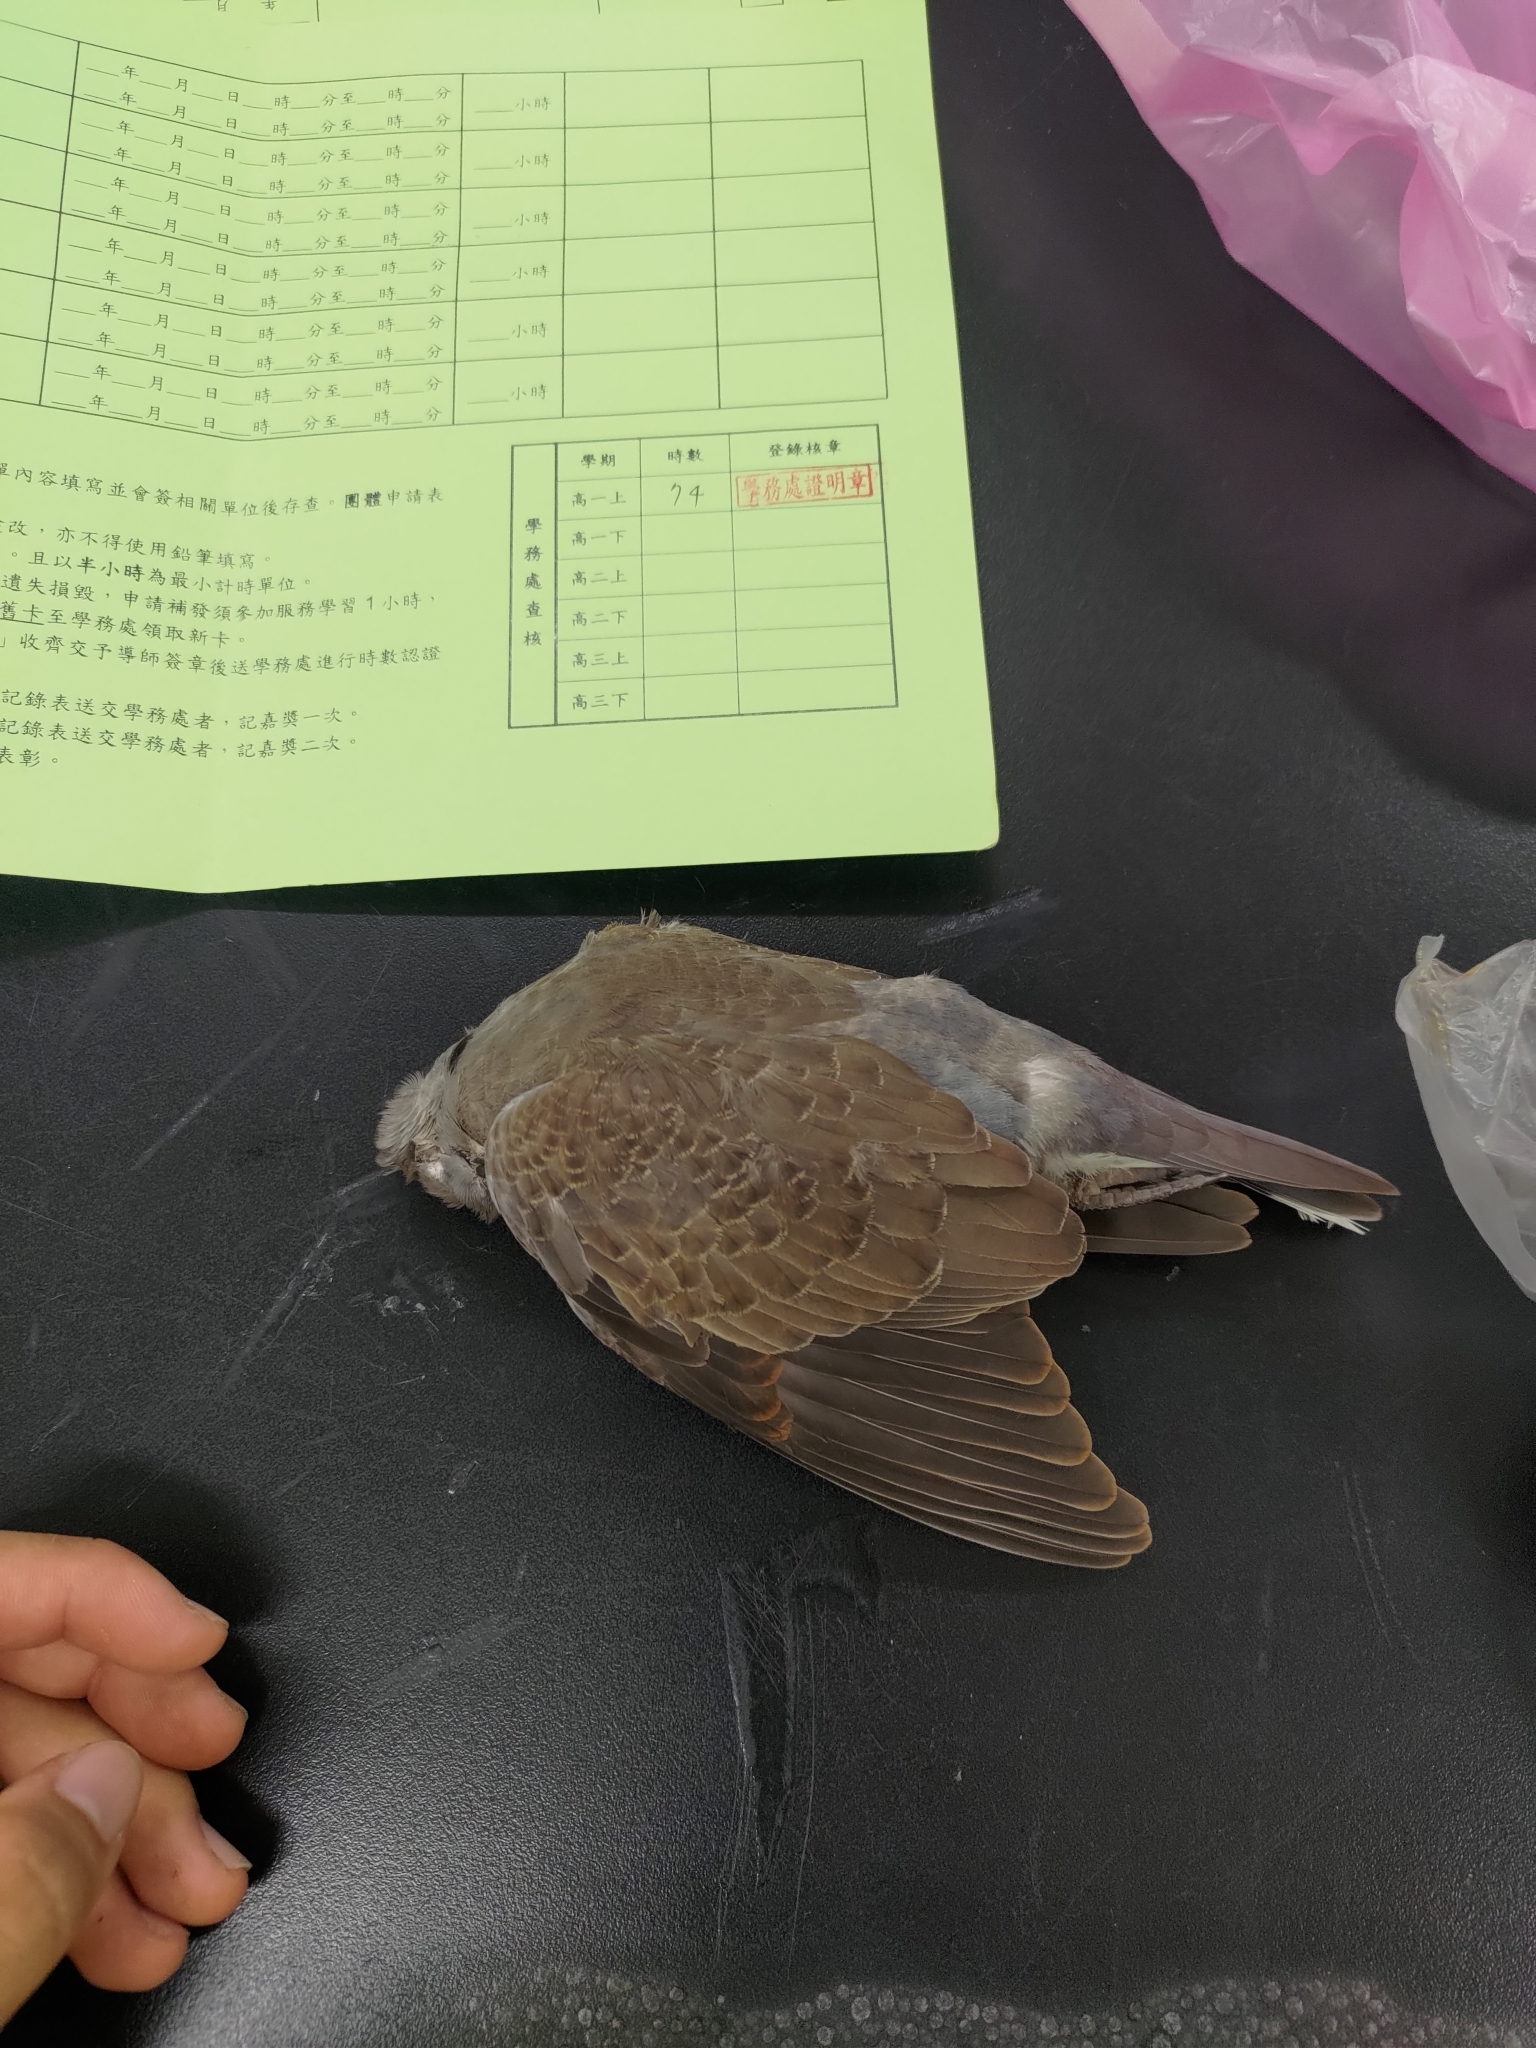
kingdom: Animalia
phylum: Chordata
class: Aves
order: Columbiformes
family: Columbidae
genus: Streptopelia
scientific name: Streptopelia tranquebarica
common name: Red turtle dove
